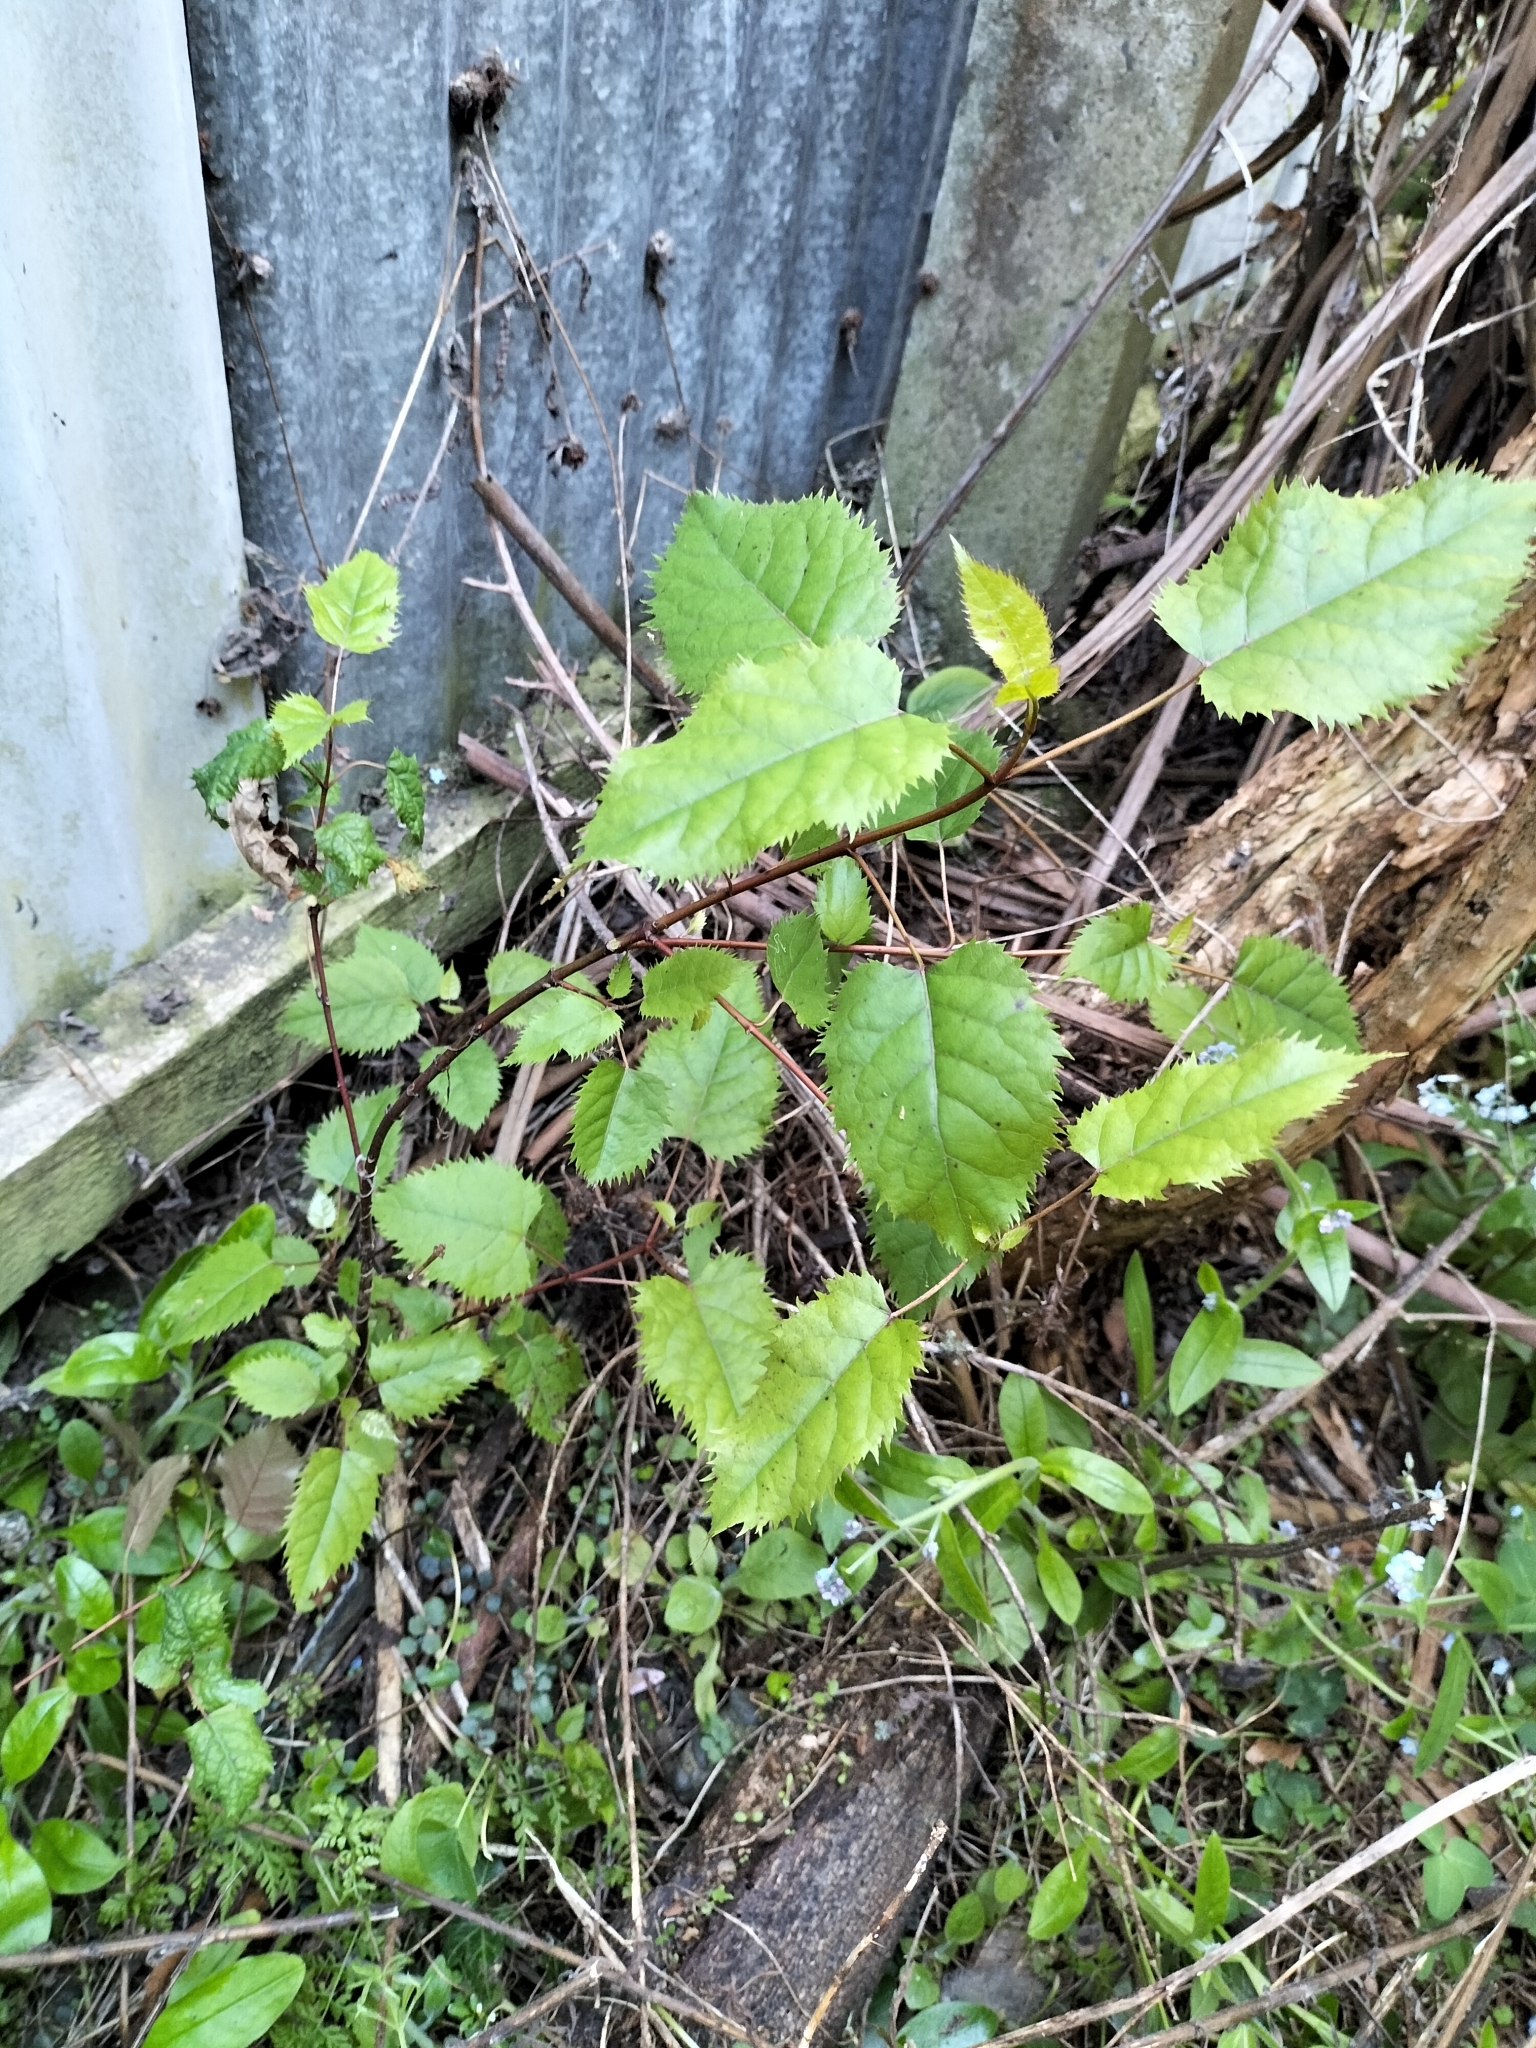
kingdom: Plantae
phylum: Tracheophyta
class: Magnoliopsida
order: Oxalidales
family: Elaeocarpaceae
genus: Aristotelia
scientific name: Aristotelia serrata
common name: New zealand wineberry
